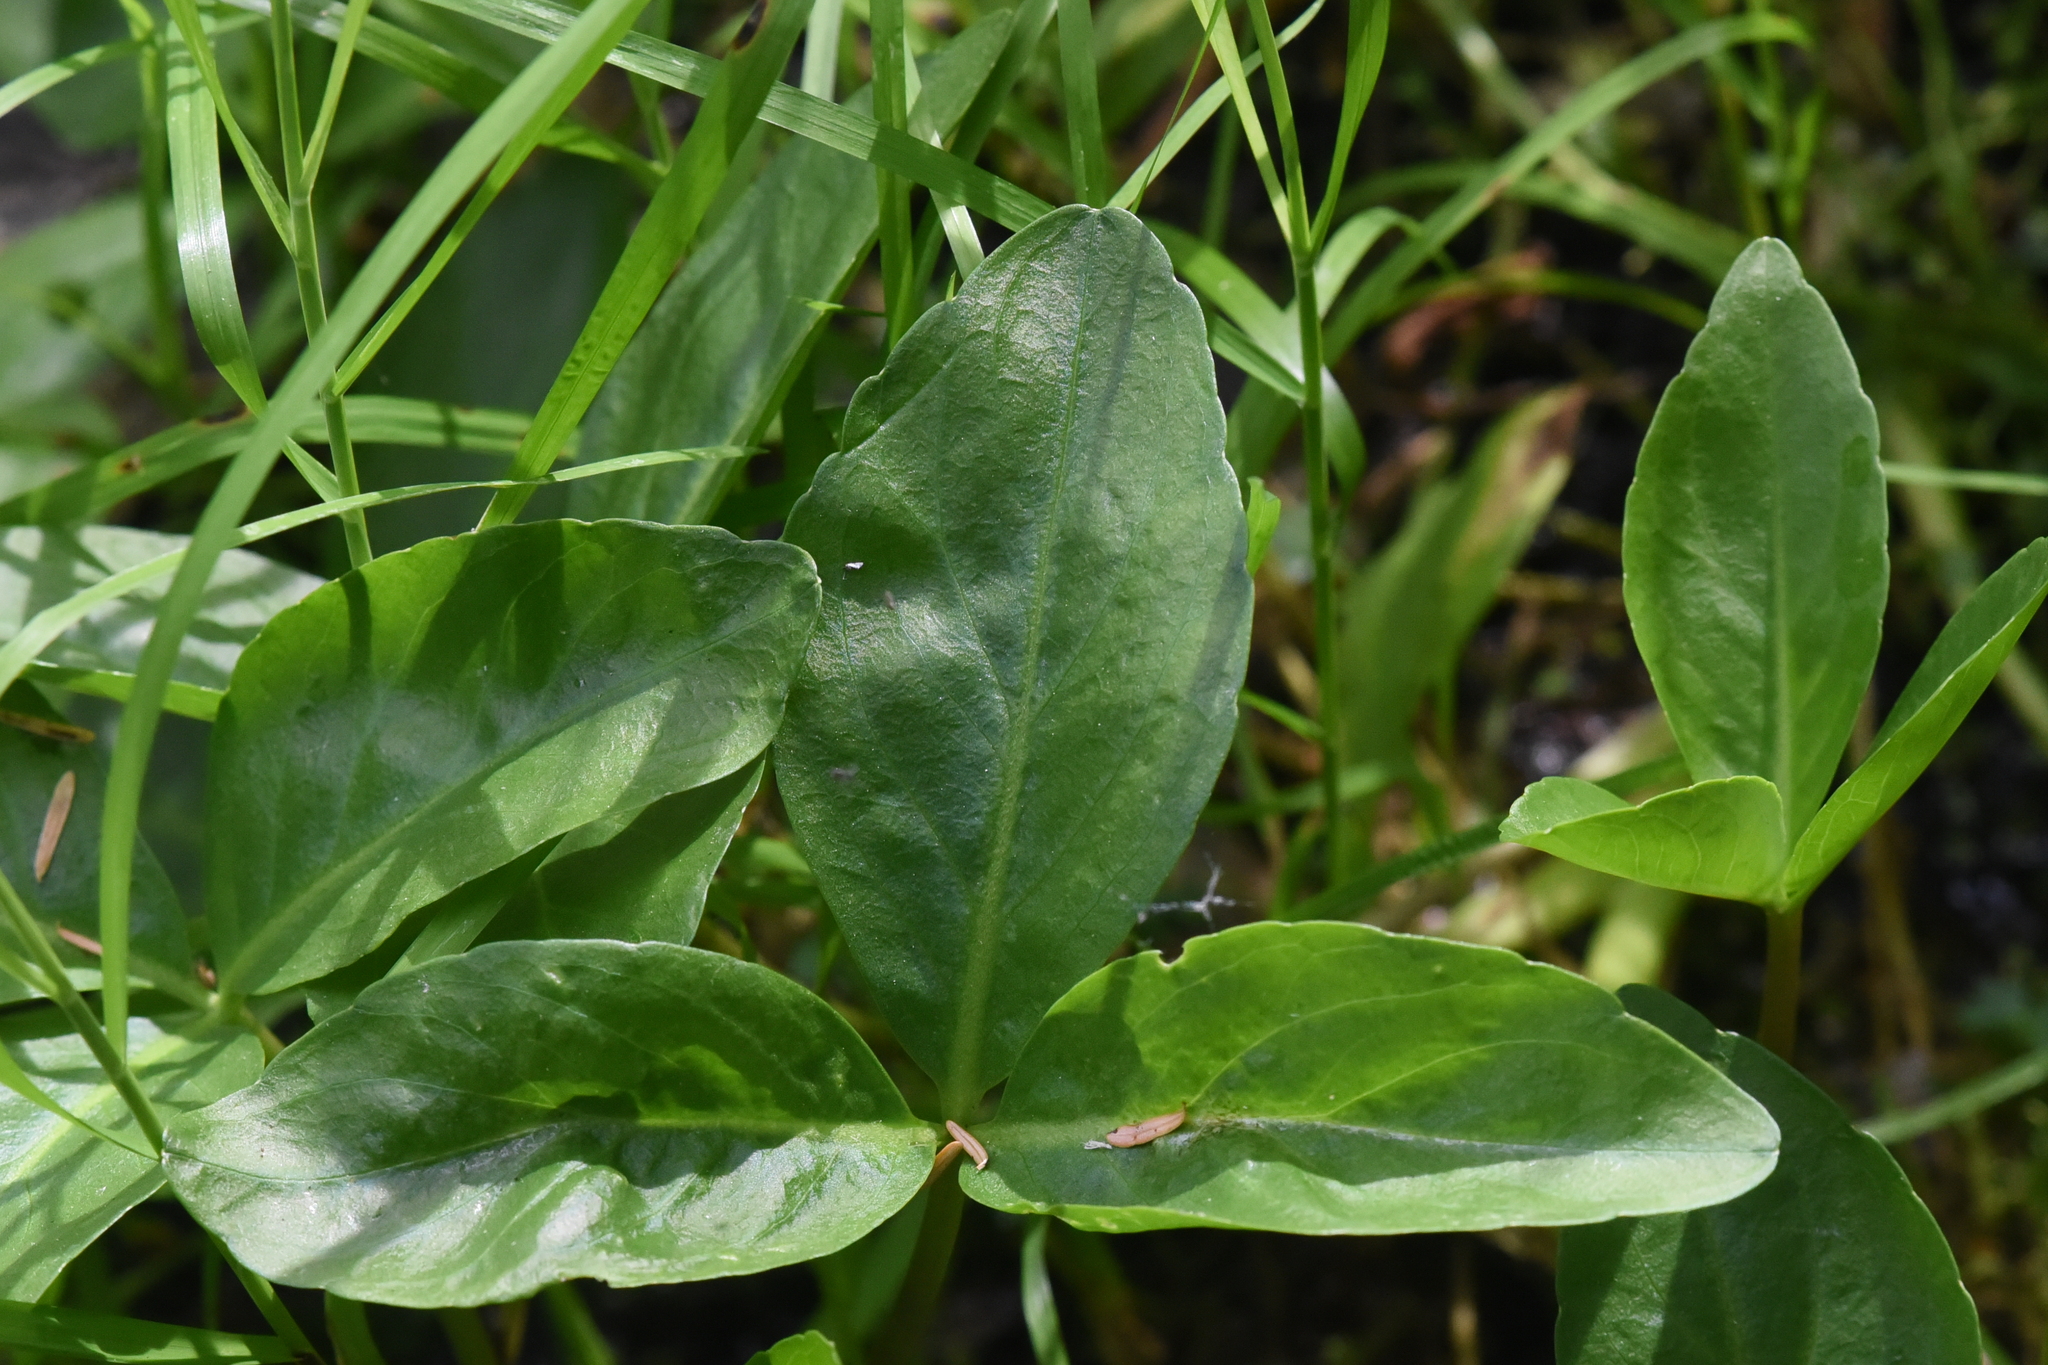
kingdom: Plantae
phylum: Tracheophyta
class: Magnoliopsida
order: Asterales
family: Menyanthaceae
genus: Menyanthes
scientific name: Menyanthes trifoliata
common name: Bogbean
